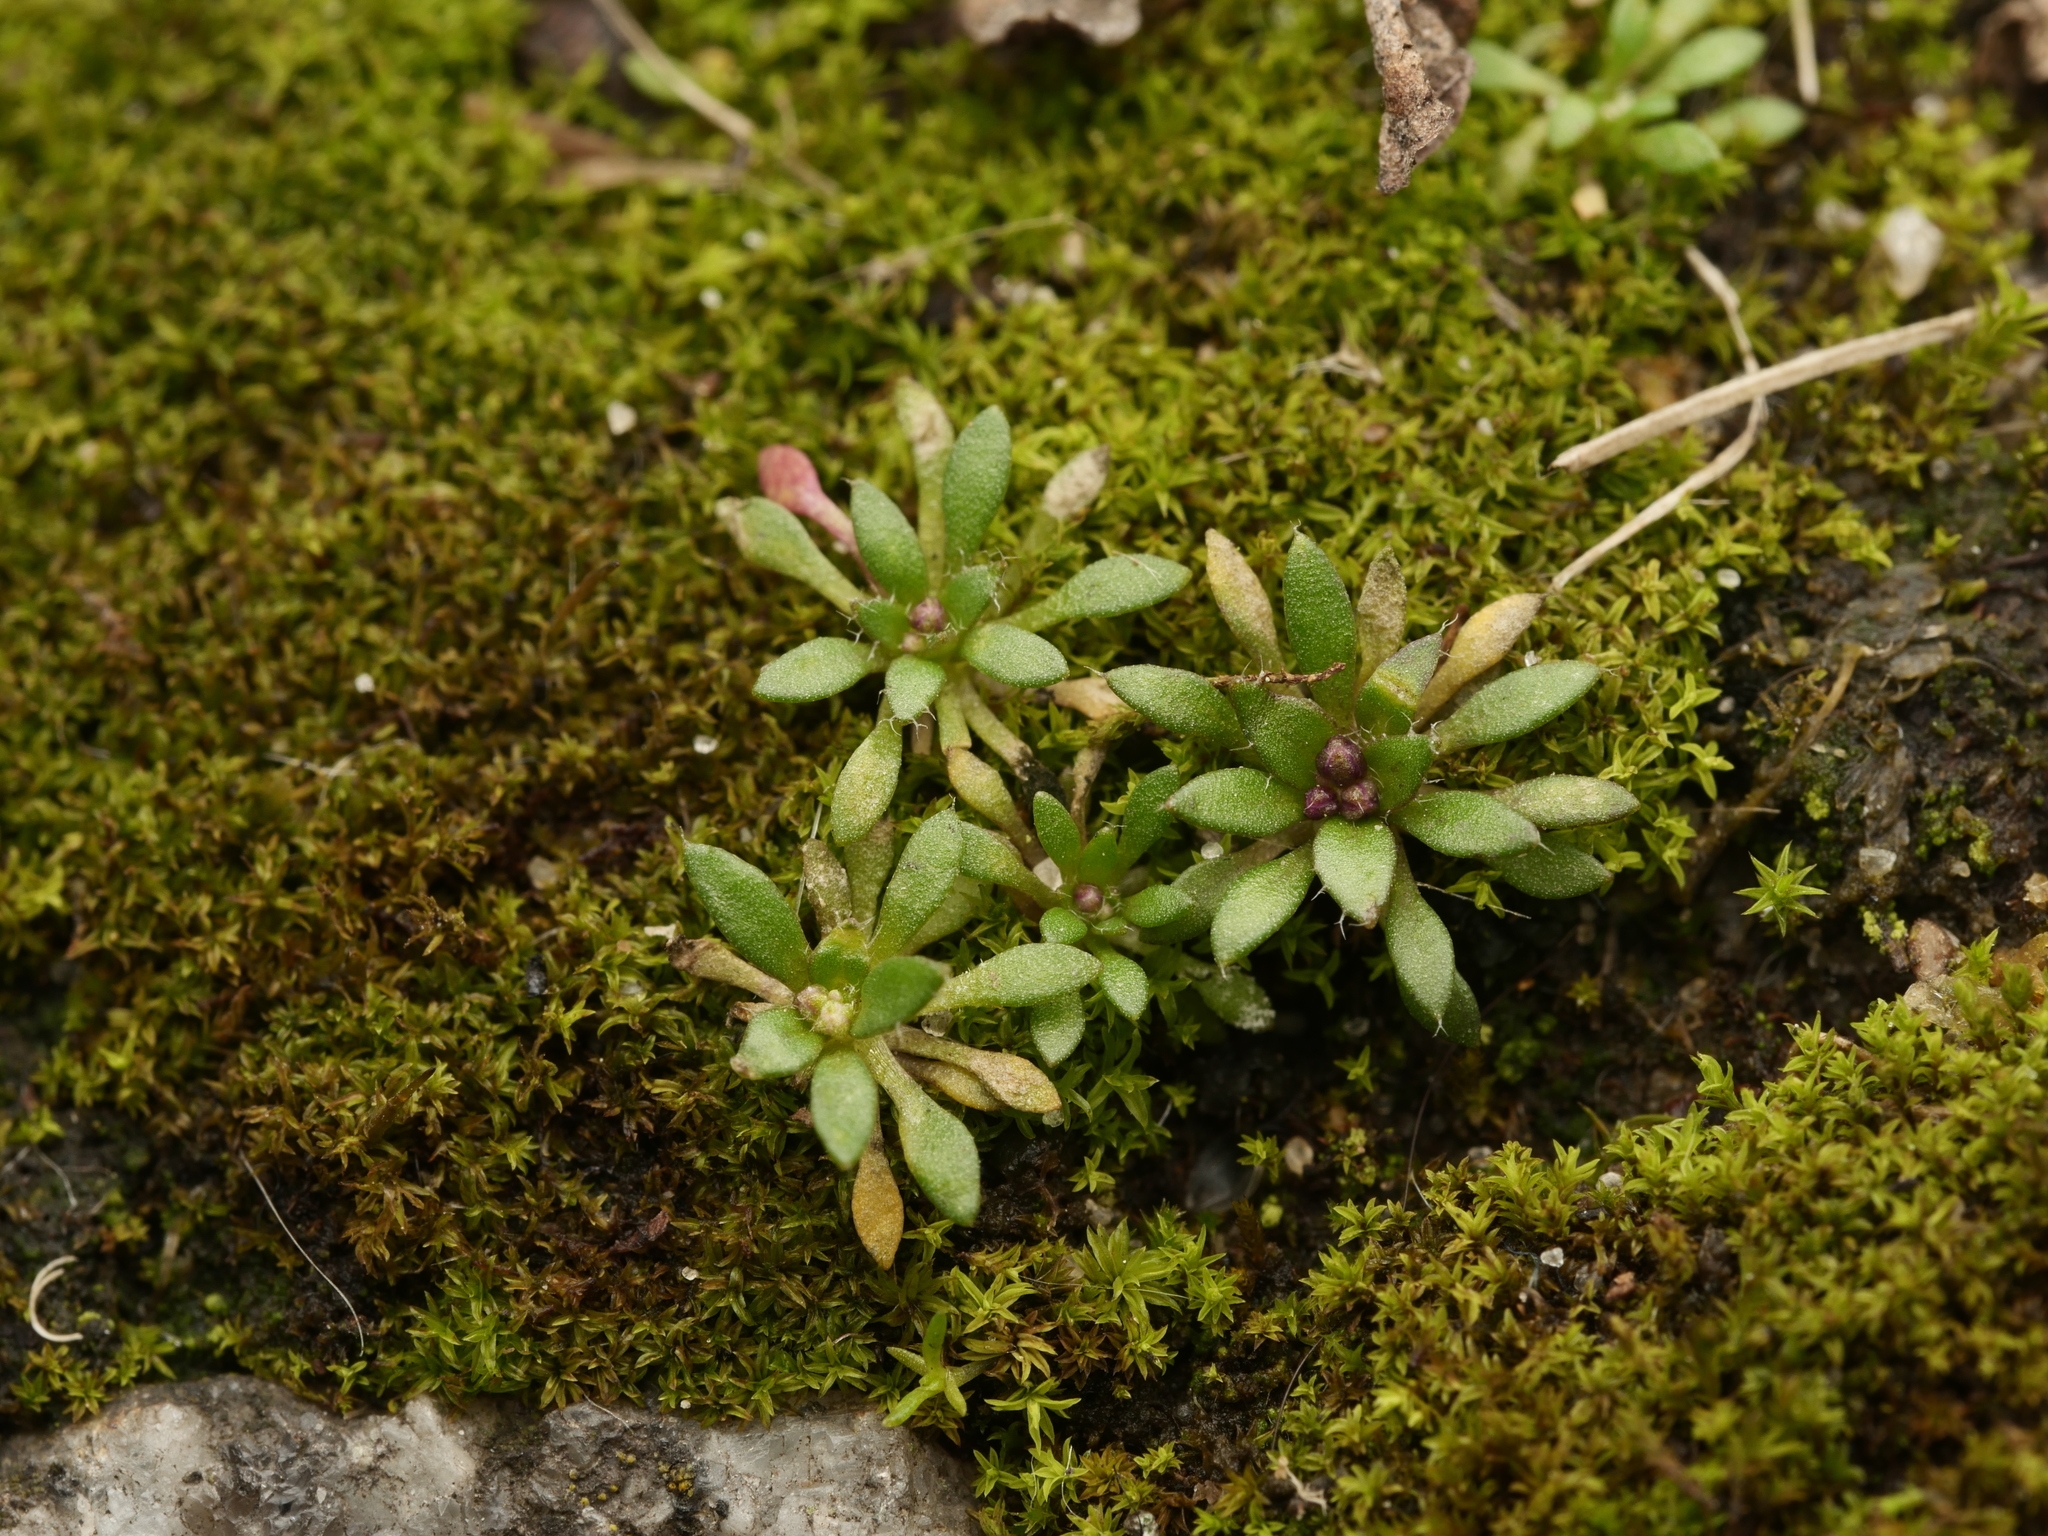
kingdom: Plantae
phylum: Tracheophyta
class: Magnoliopsida
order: Brassicales
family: Brassicaceae
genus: Draba
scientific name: Draba verna
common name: Spring draba
